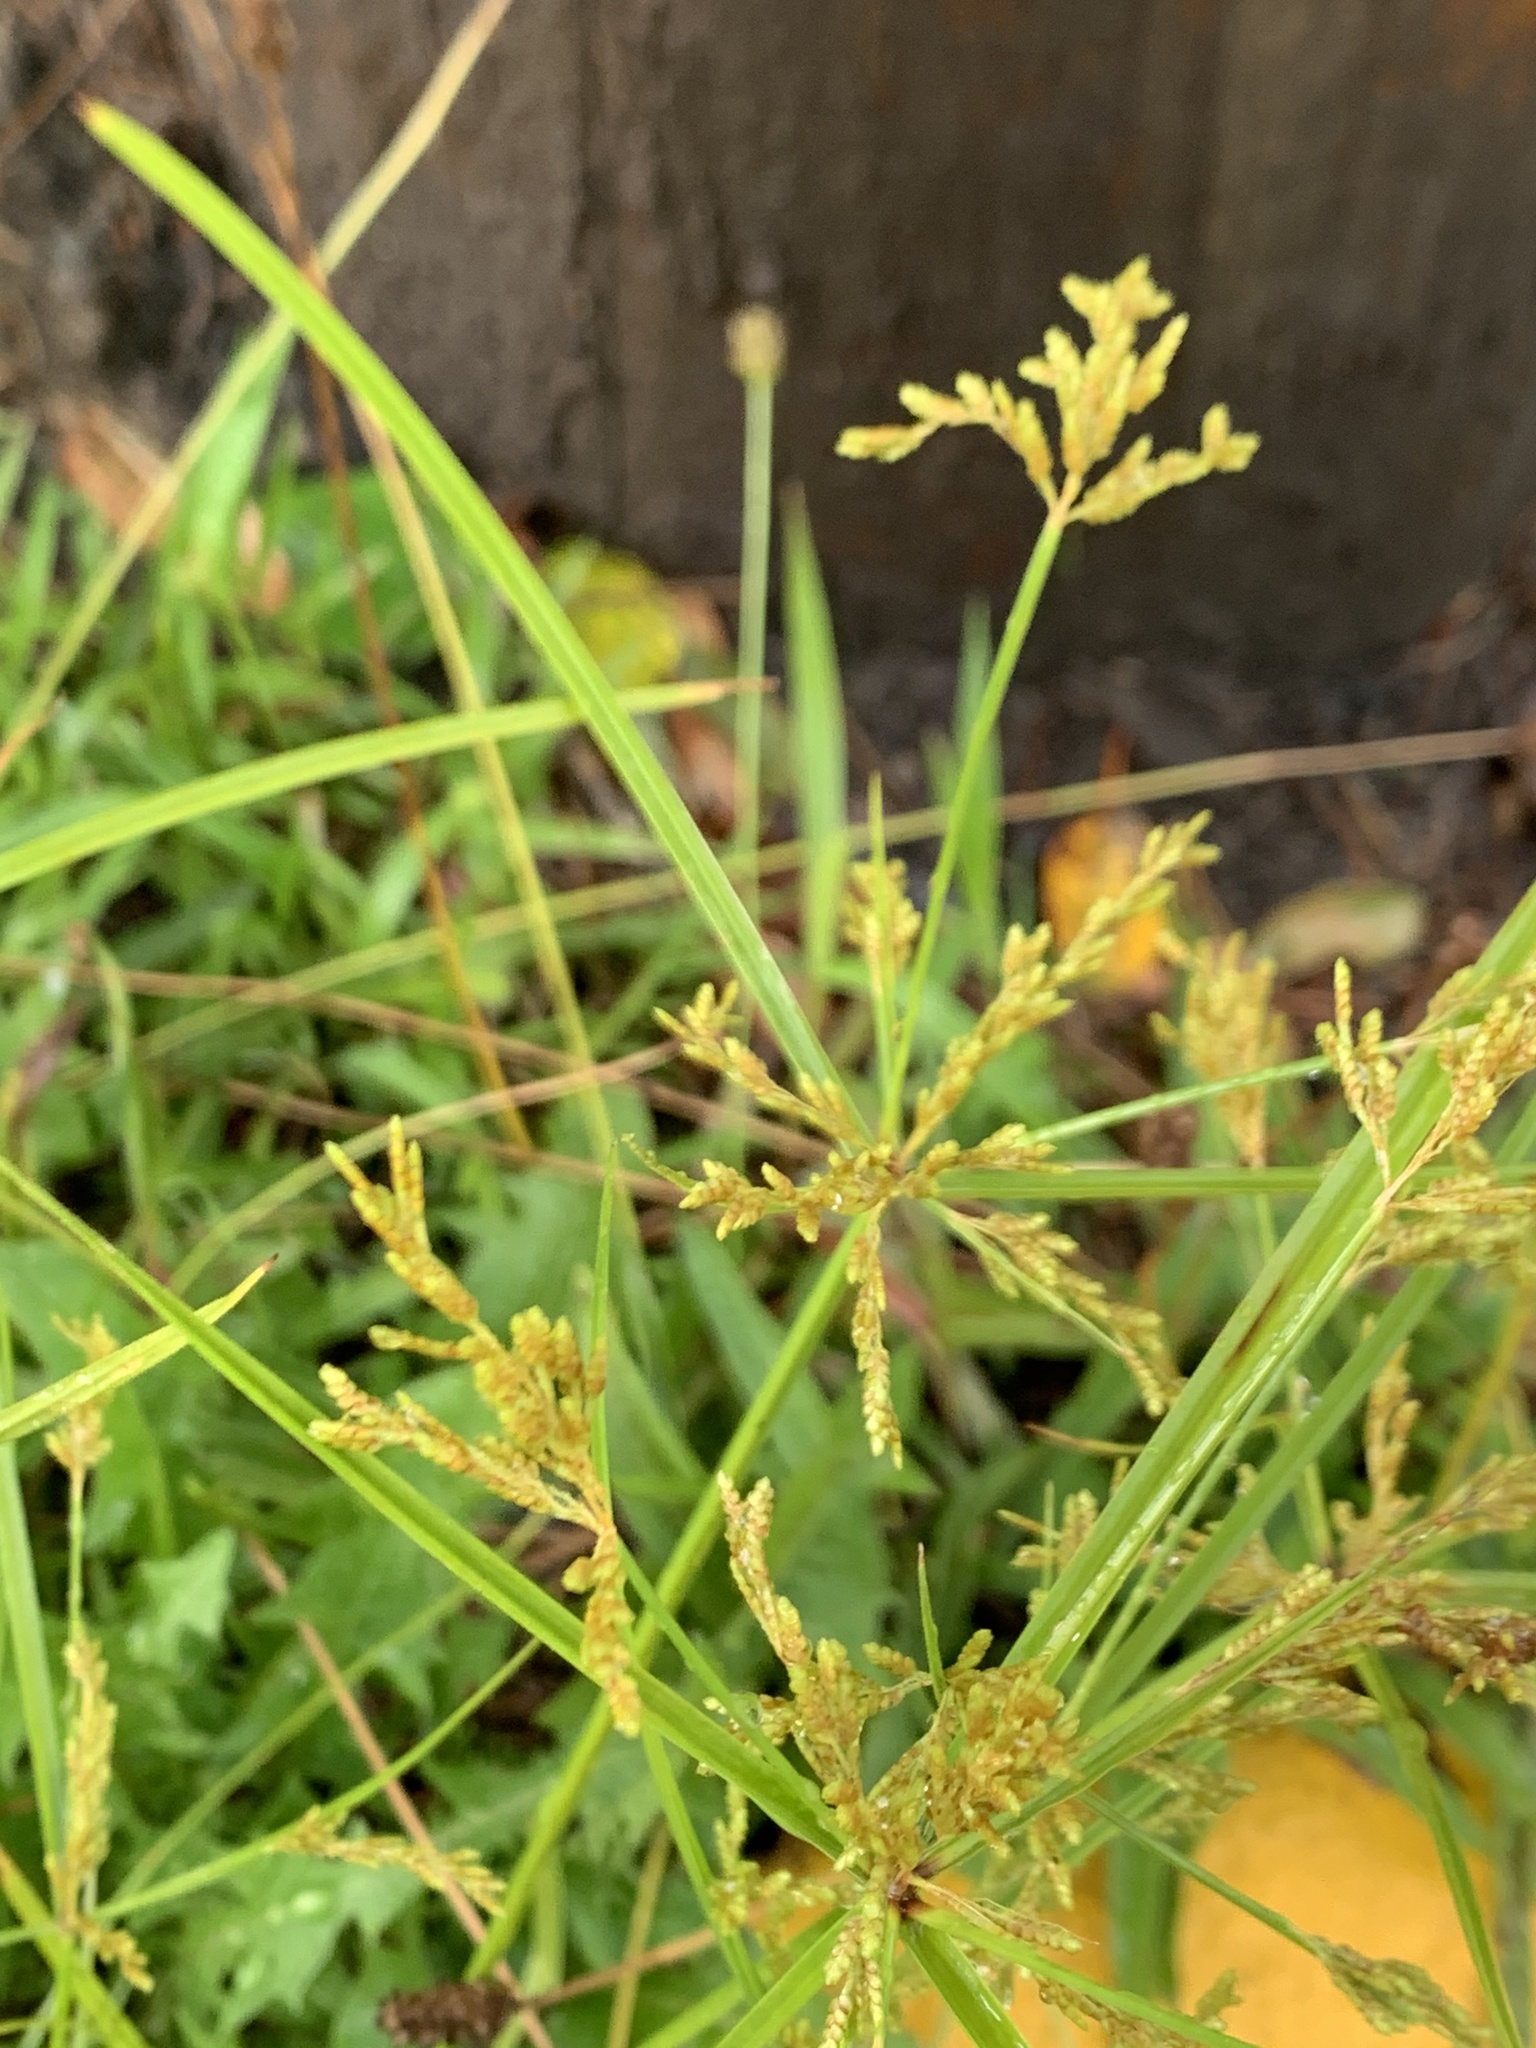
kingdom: Plantae
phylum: Tracheophyta
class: Liliopsida
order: Poales
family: Cyperaceae
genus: Cyperus
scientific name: Cyperus iria
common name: Ricefield flatsedge
